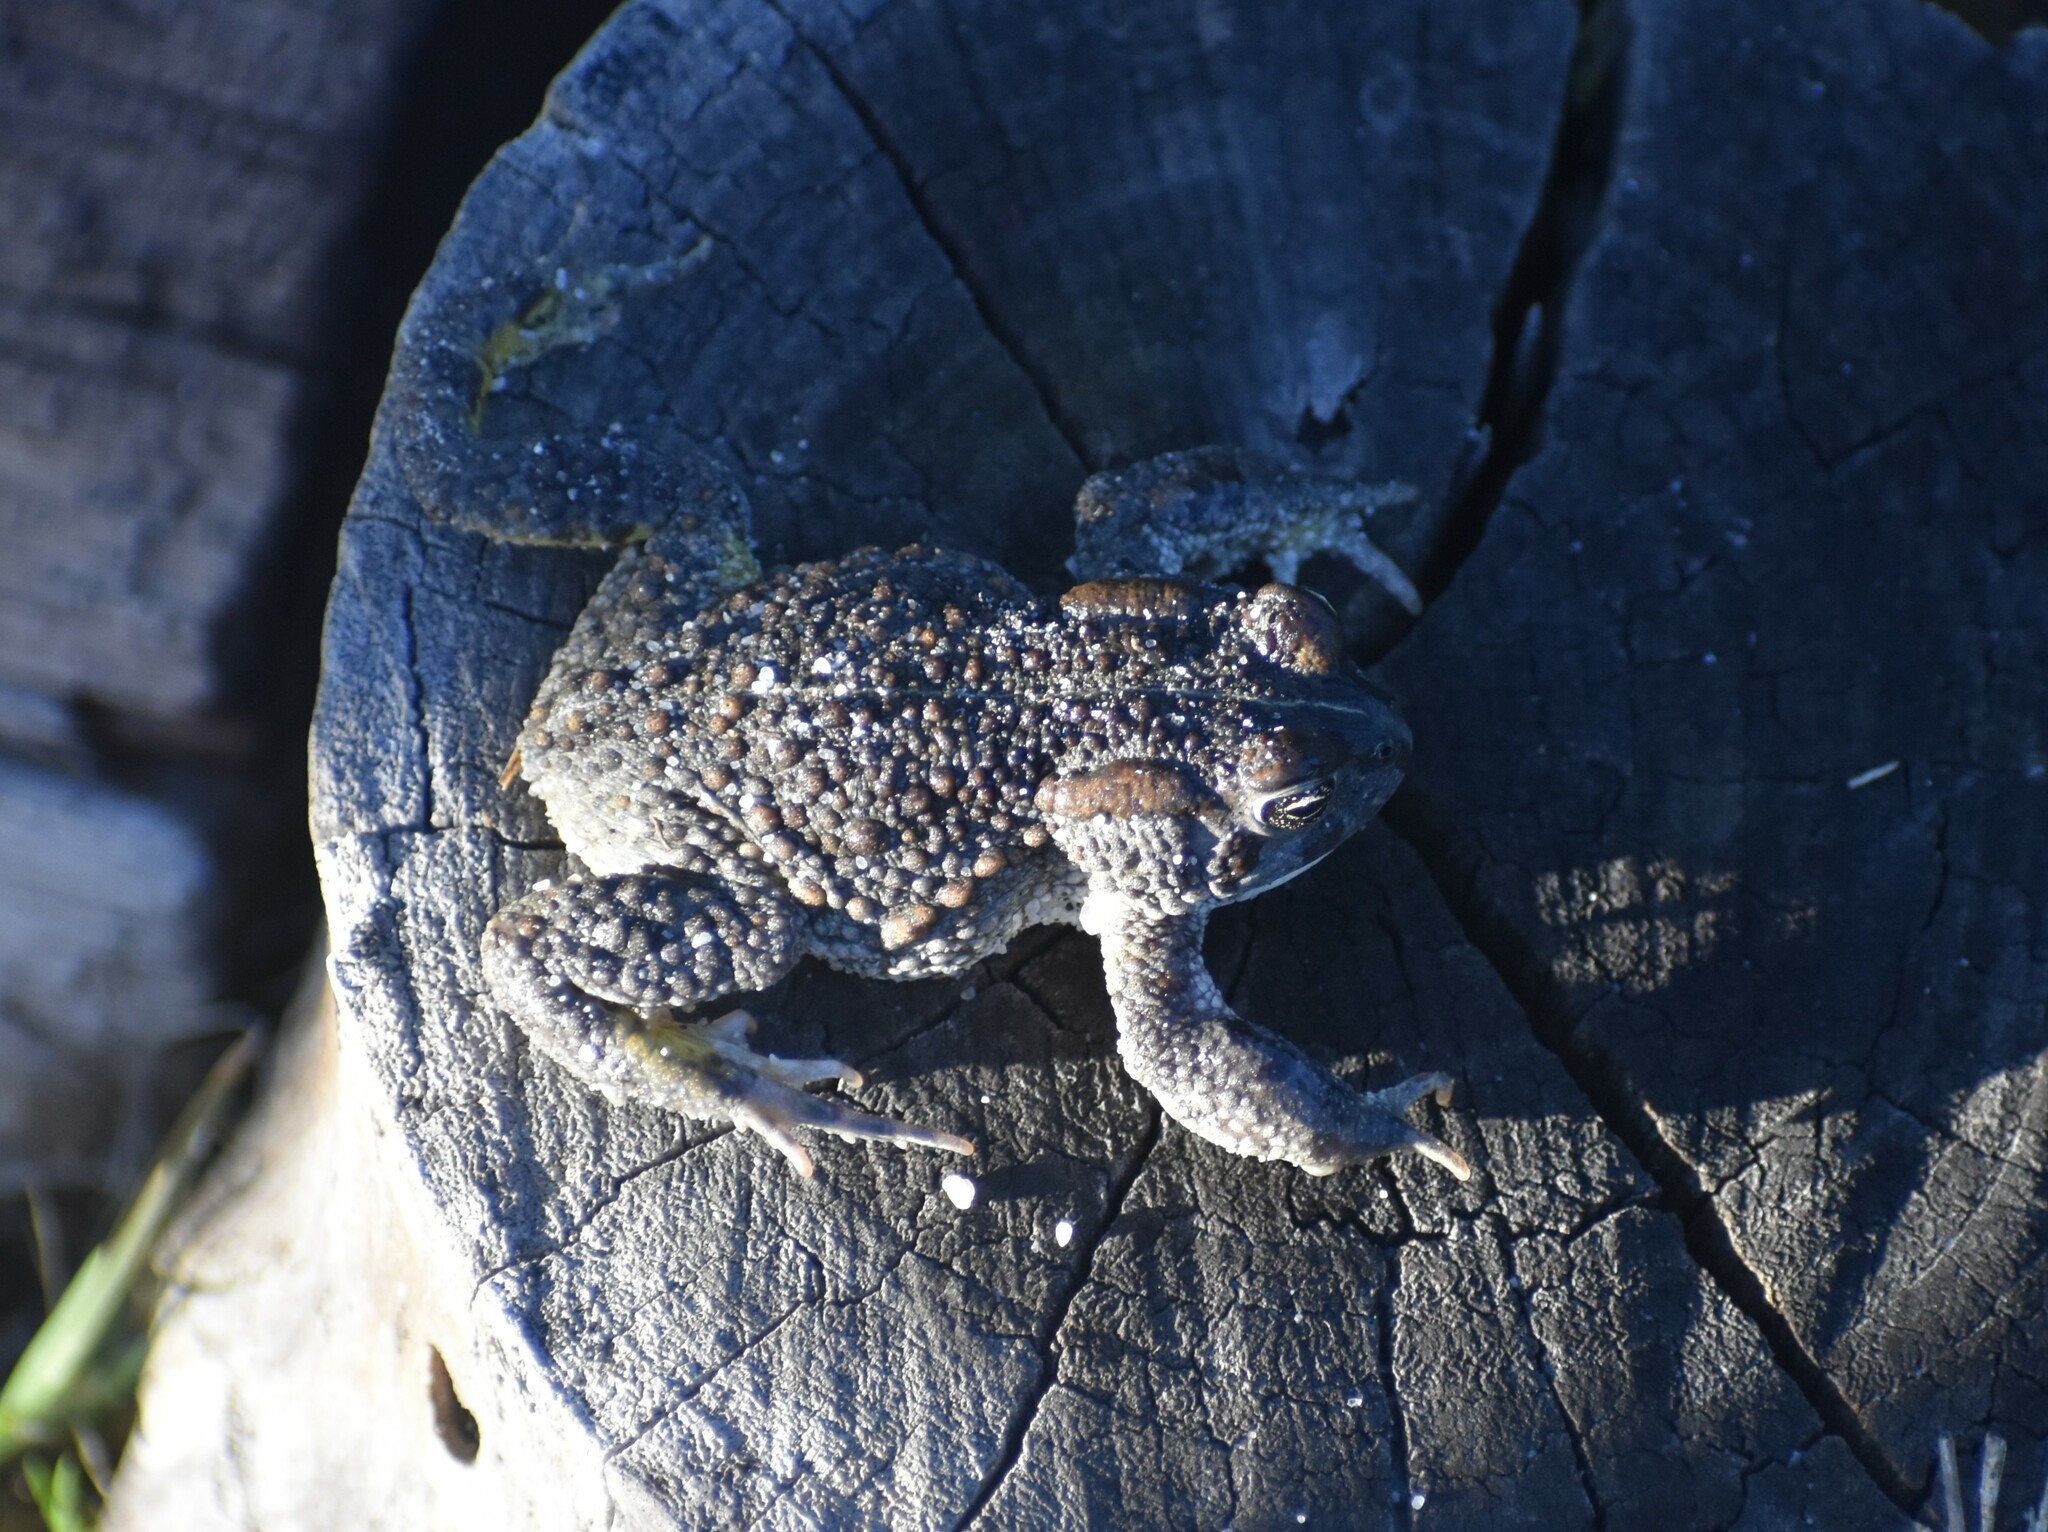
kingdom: Animalia
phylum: Chordata
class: Amphibia
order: Anura
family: Bufonidae
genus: Vandijkophrynus
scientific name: Vandijkophrynus angusticeps
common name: Sand toad
